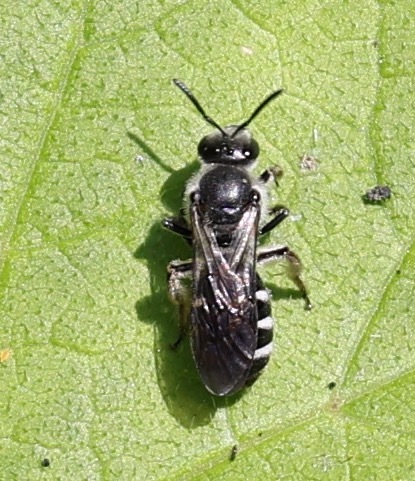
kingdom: Animalia
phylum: Arthropoda
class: Insecta
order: Hymenoptera
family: Halictidae
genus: Lasioglossum
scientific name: Lasioglossum sexnotatum
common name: Ashy furrow bee
